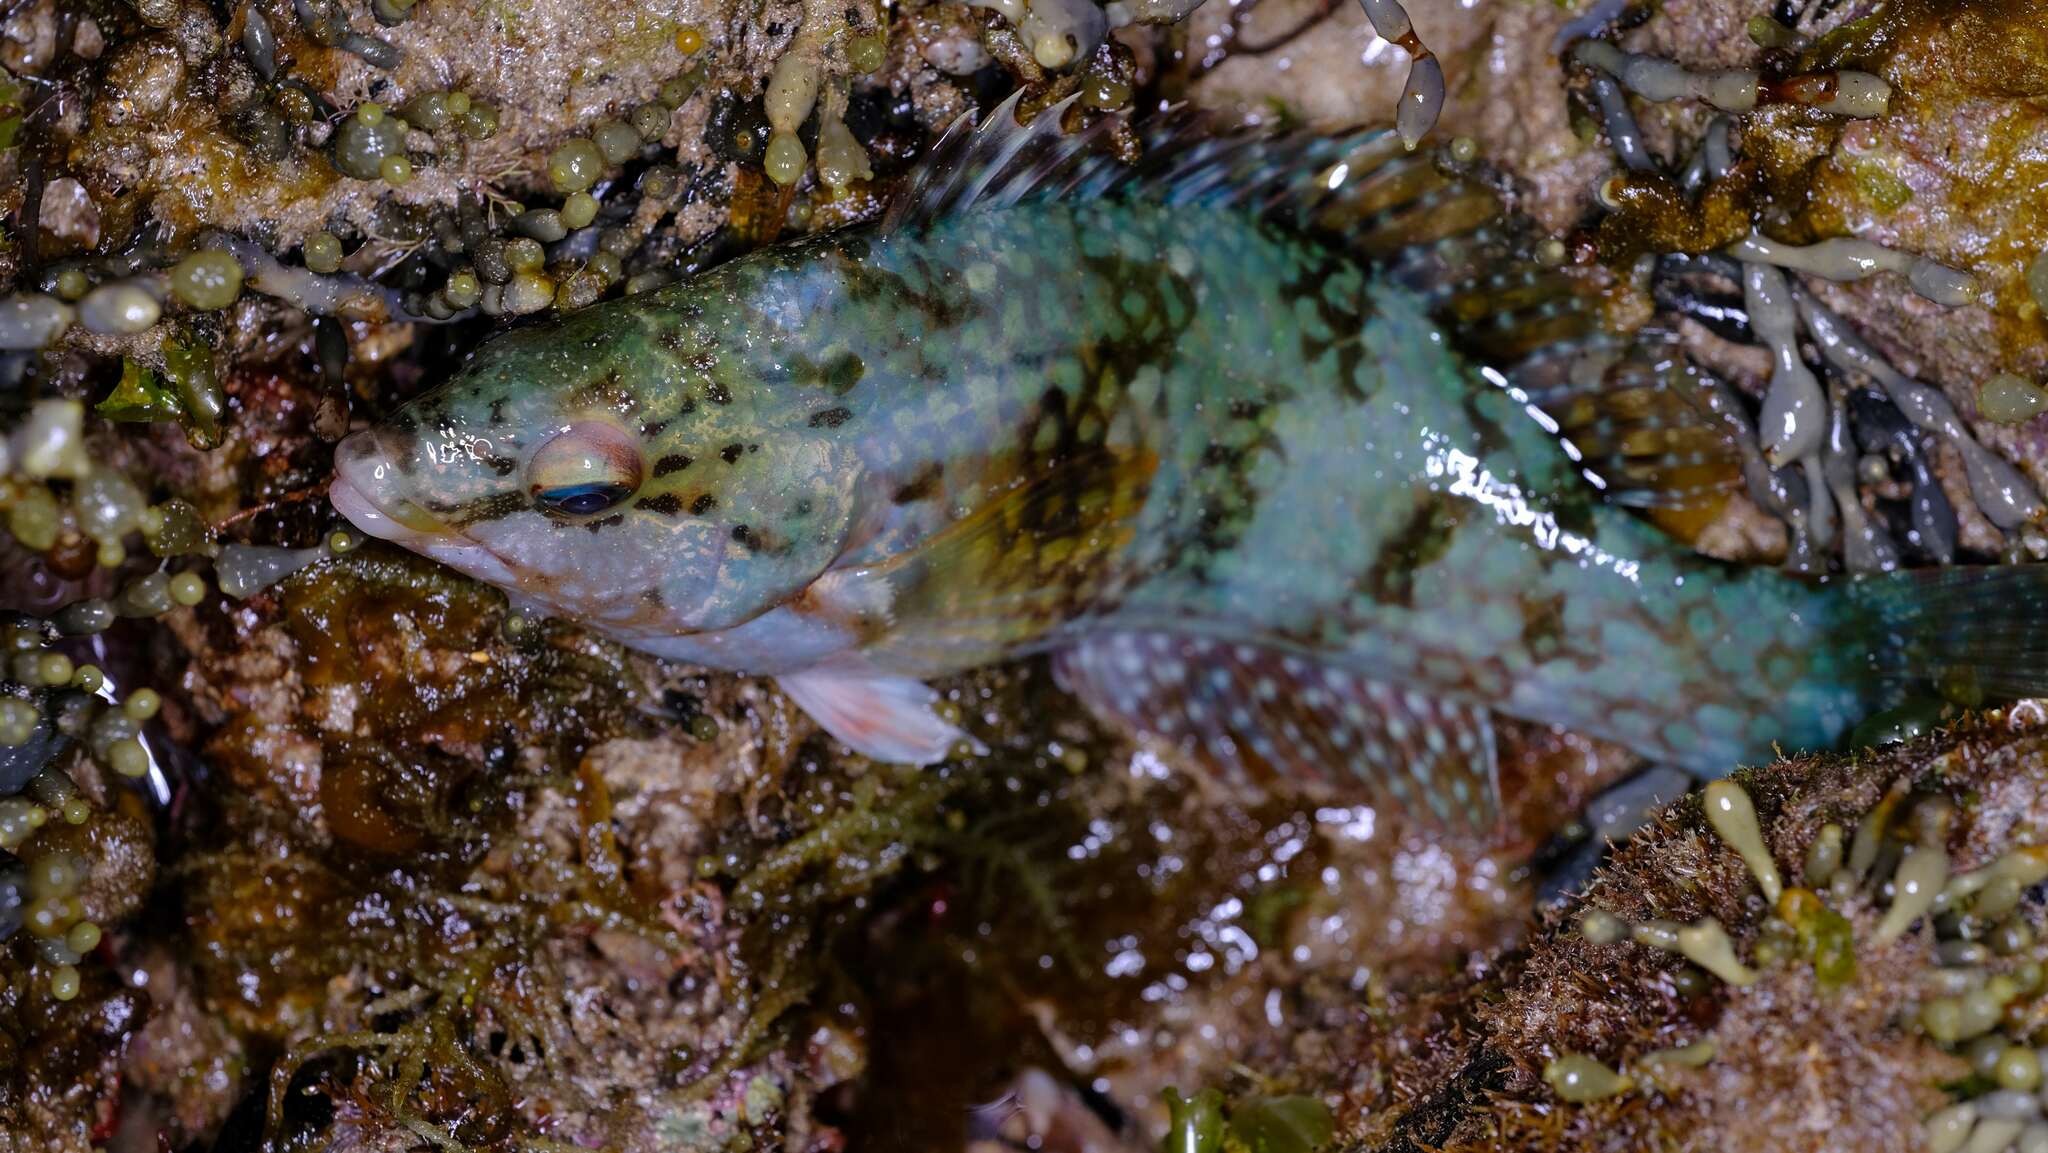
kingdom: Animalia
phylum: Chordata
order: Perciformes
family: Labridae
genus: Notolabrus
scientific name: Notolabrus parilus
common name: Brown spotted wrasse
